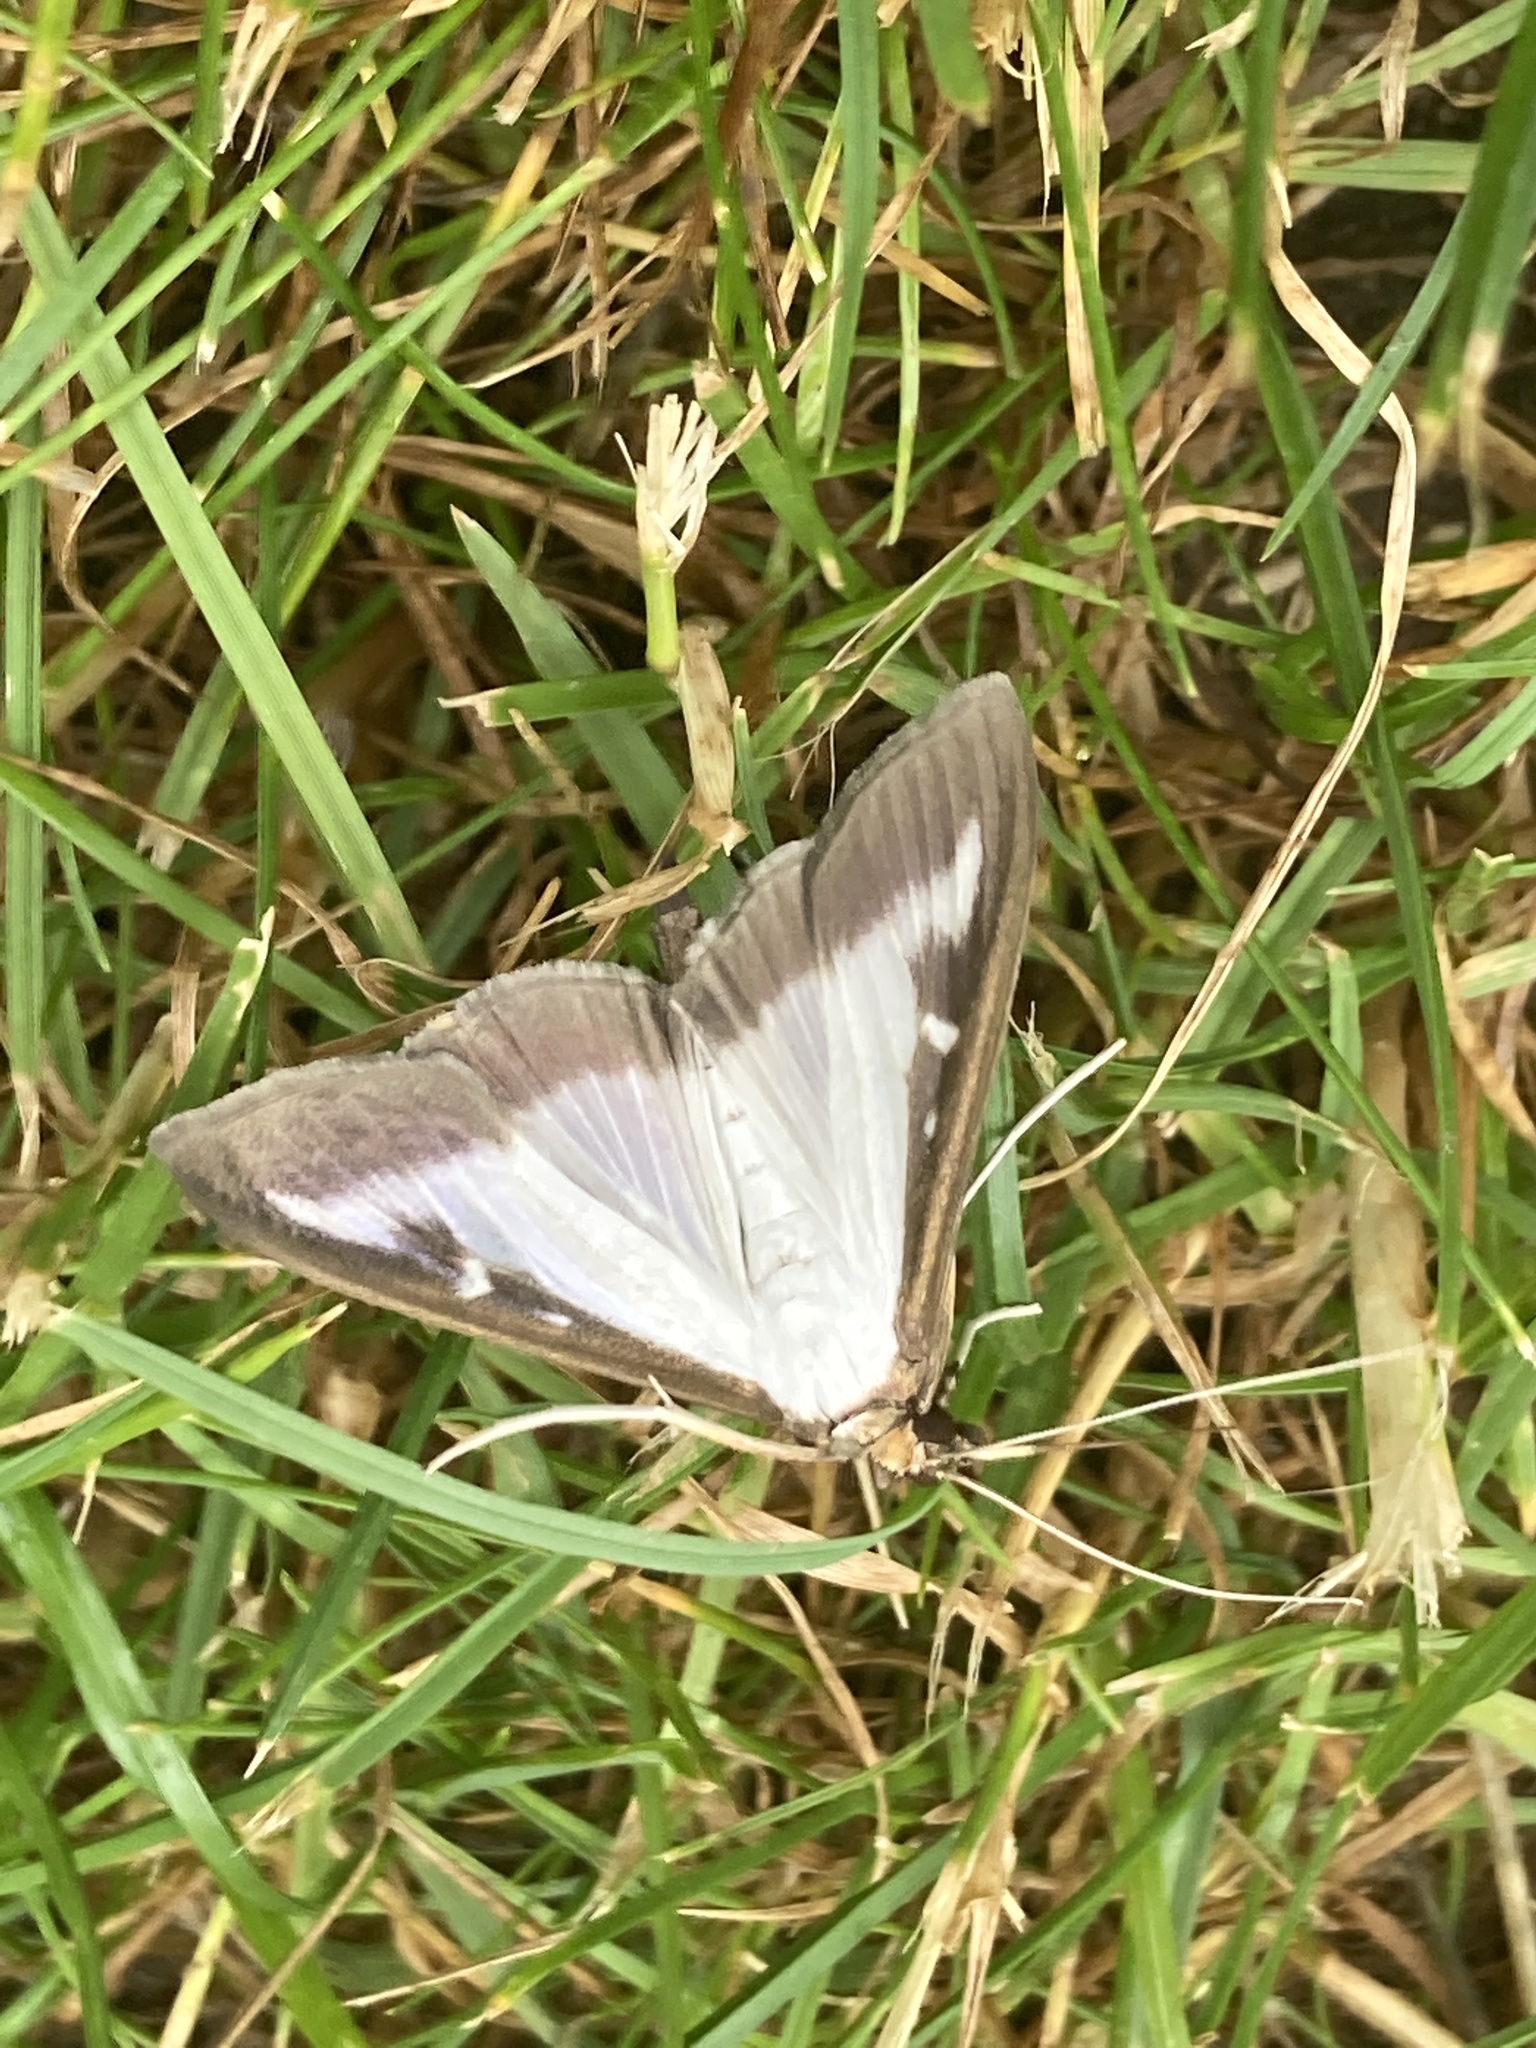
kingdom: Animalia
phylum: Arthropoda
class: Insecta
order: Lepidoptera
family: Crambidae
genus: Cydalima
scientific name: Cydalima perspectalis
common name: Box tree moth
